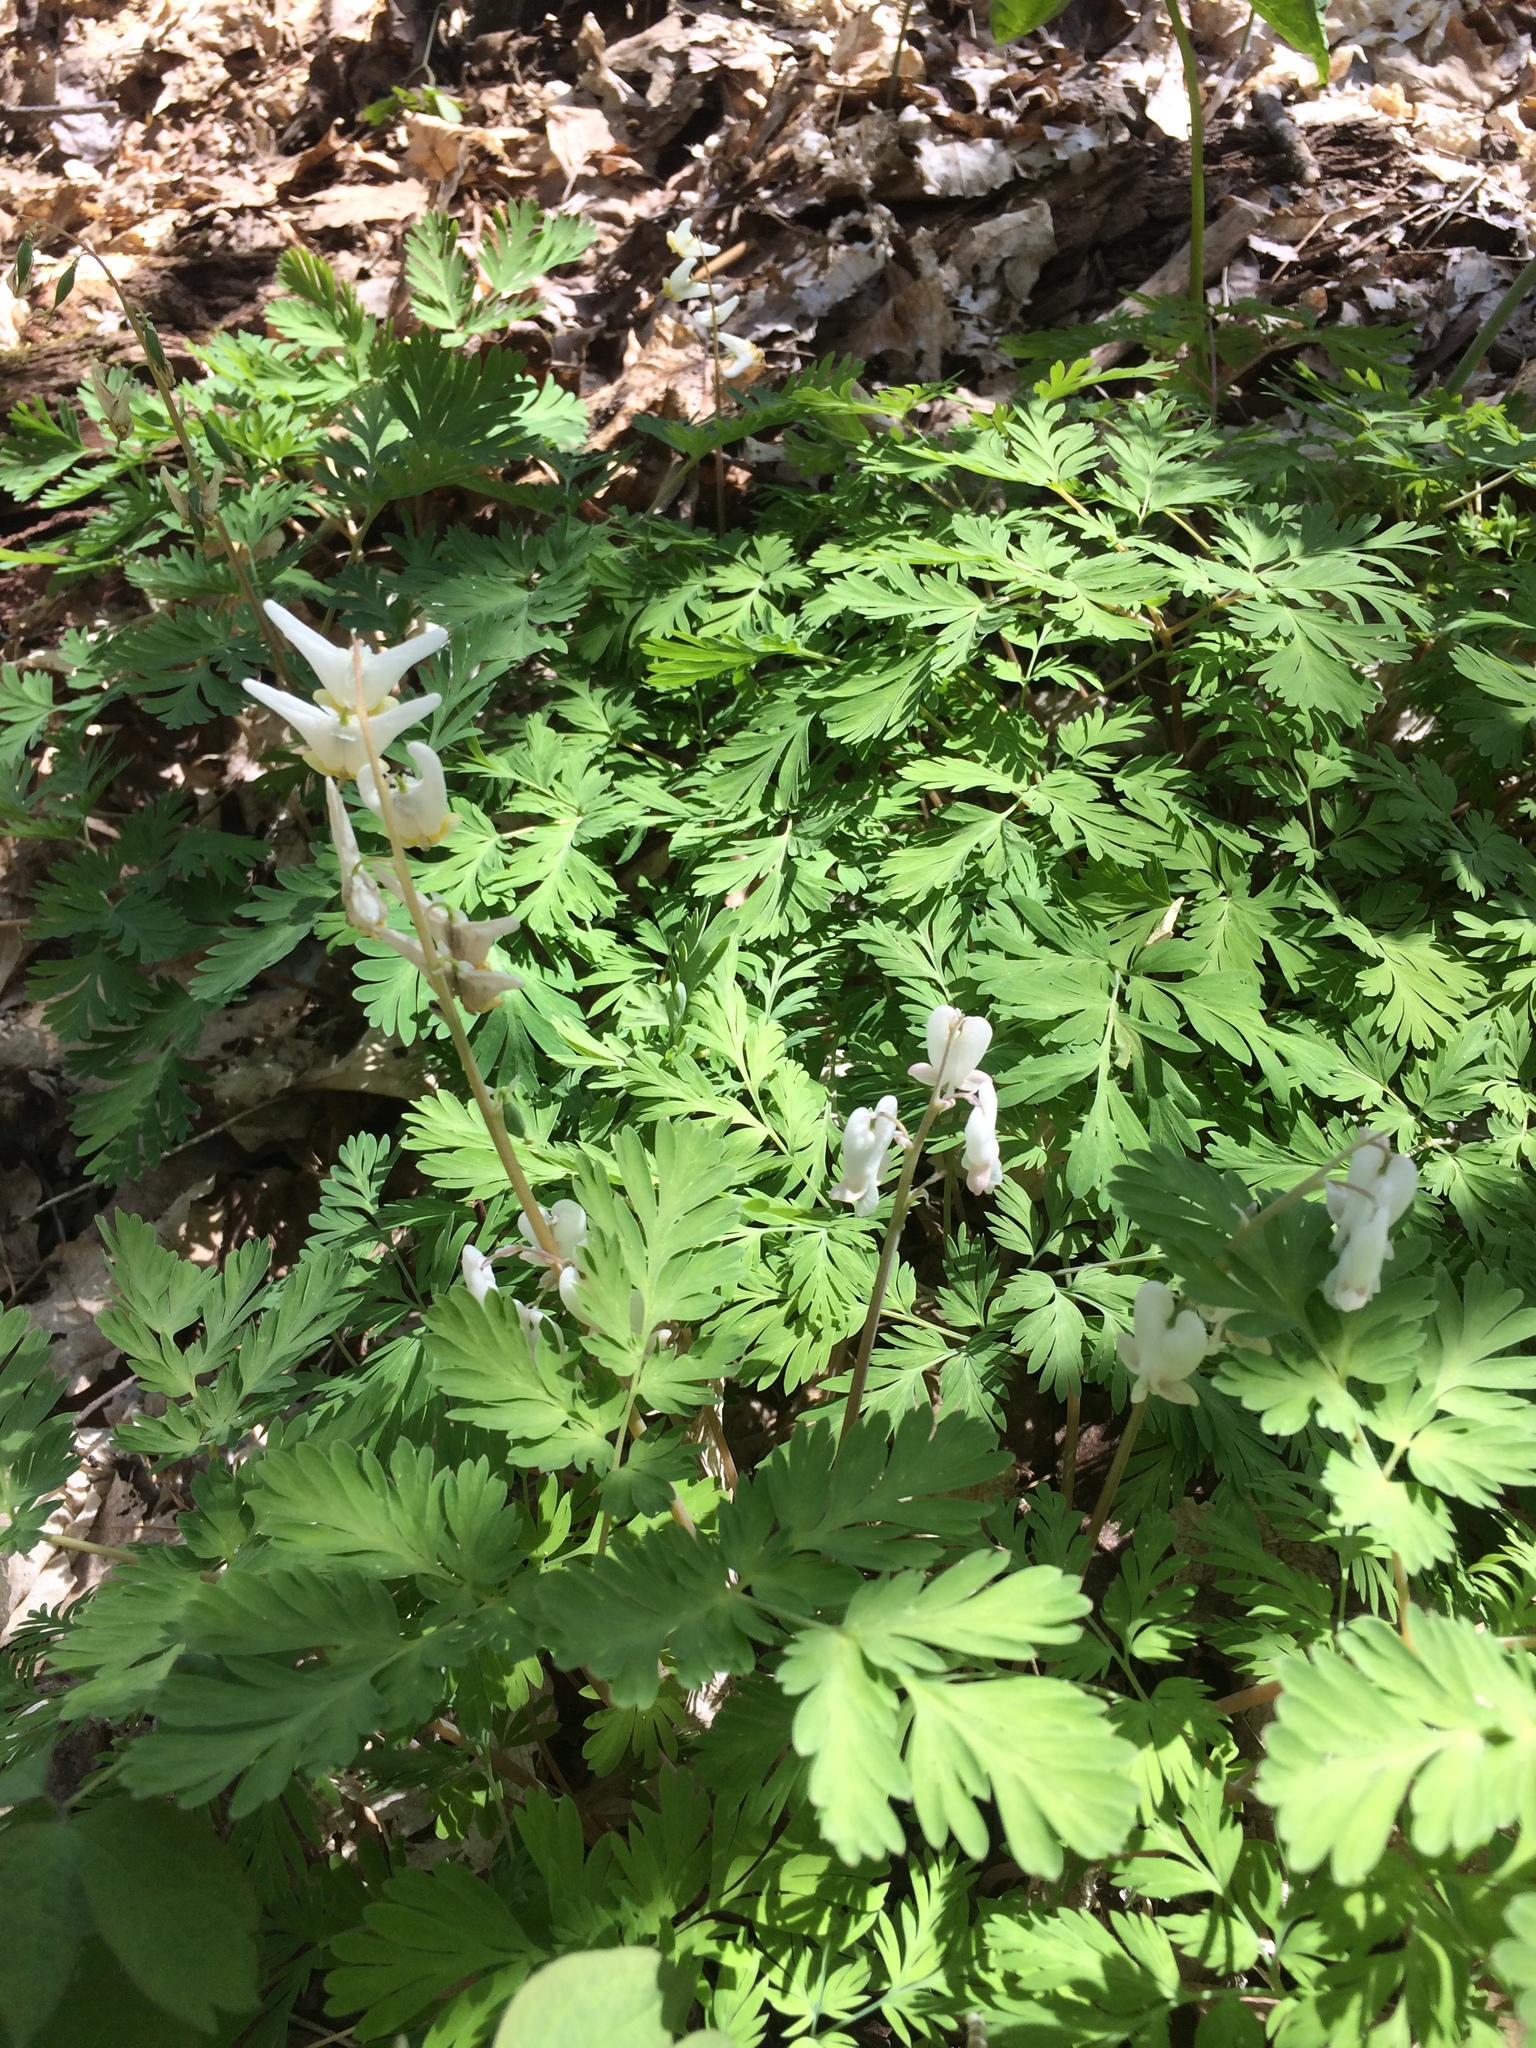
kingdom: Plantae
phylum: Tracheophyta
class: Magnoliopsida
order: Ranunculales
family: Papaveraceae
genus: Dicentra
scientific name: Dicentra canadensis
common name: Squirrel-corn
